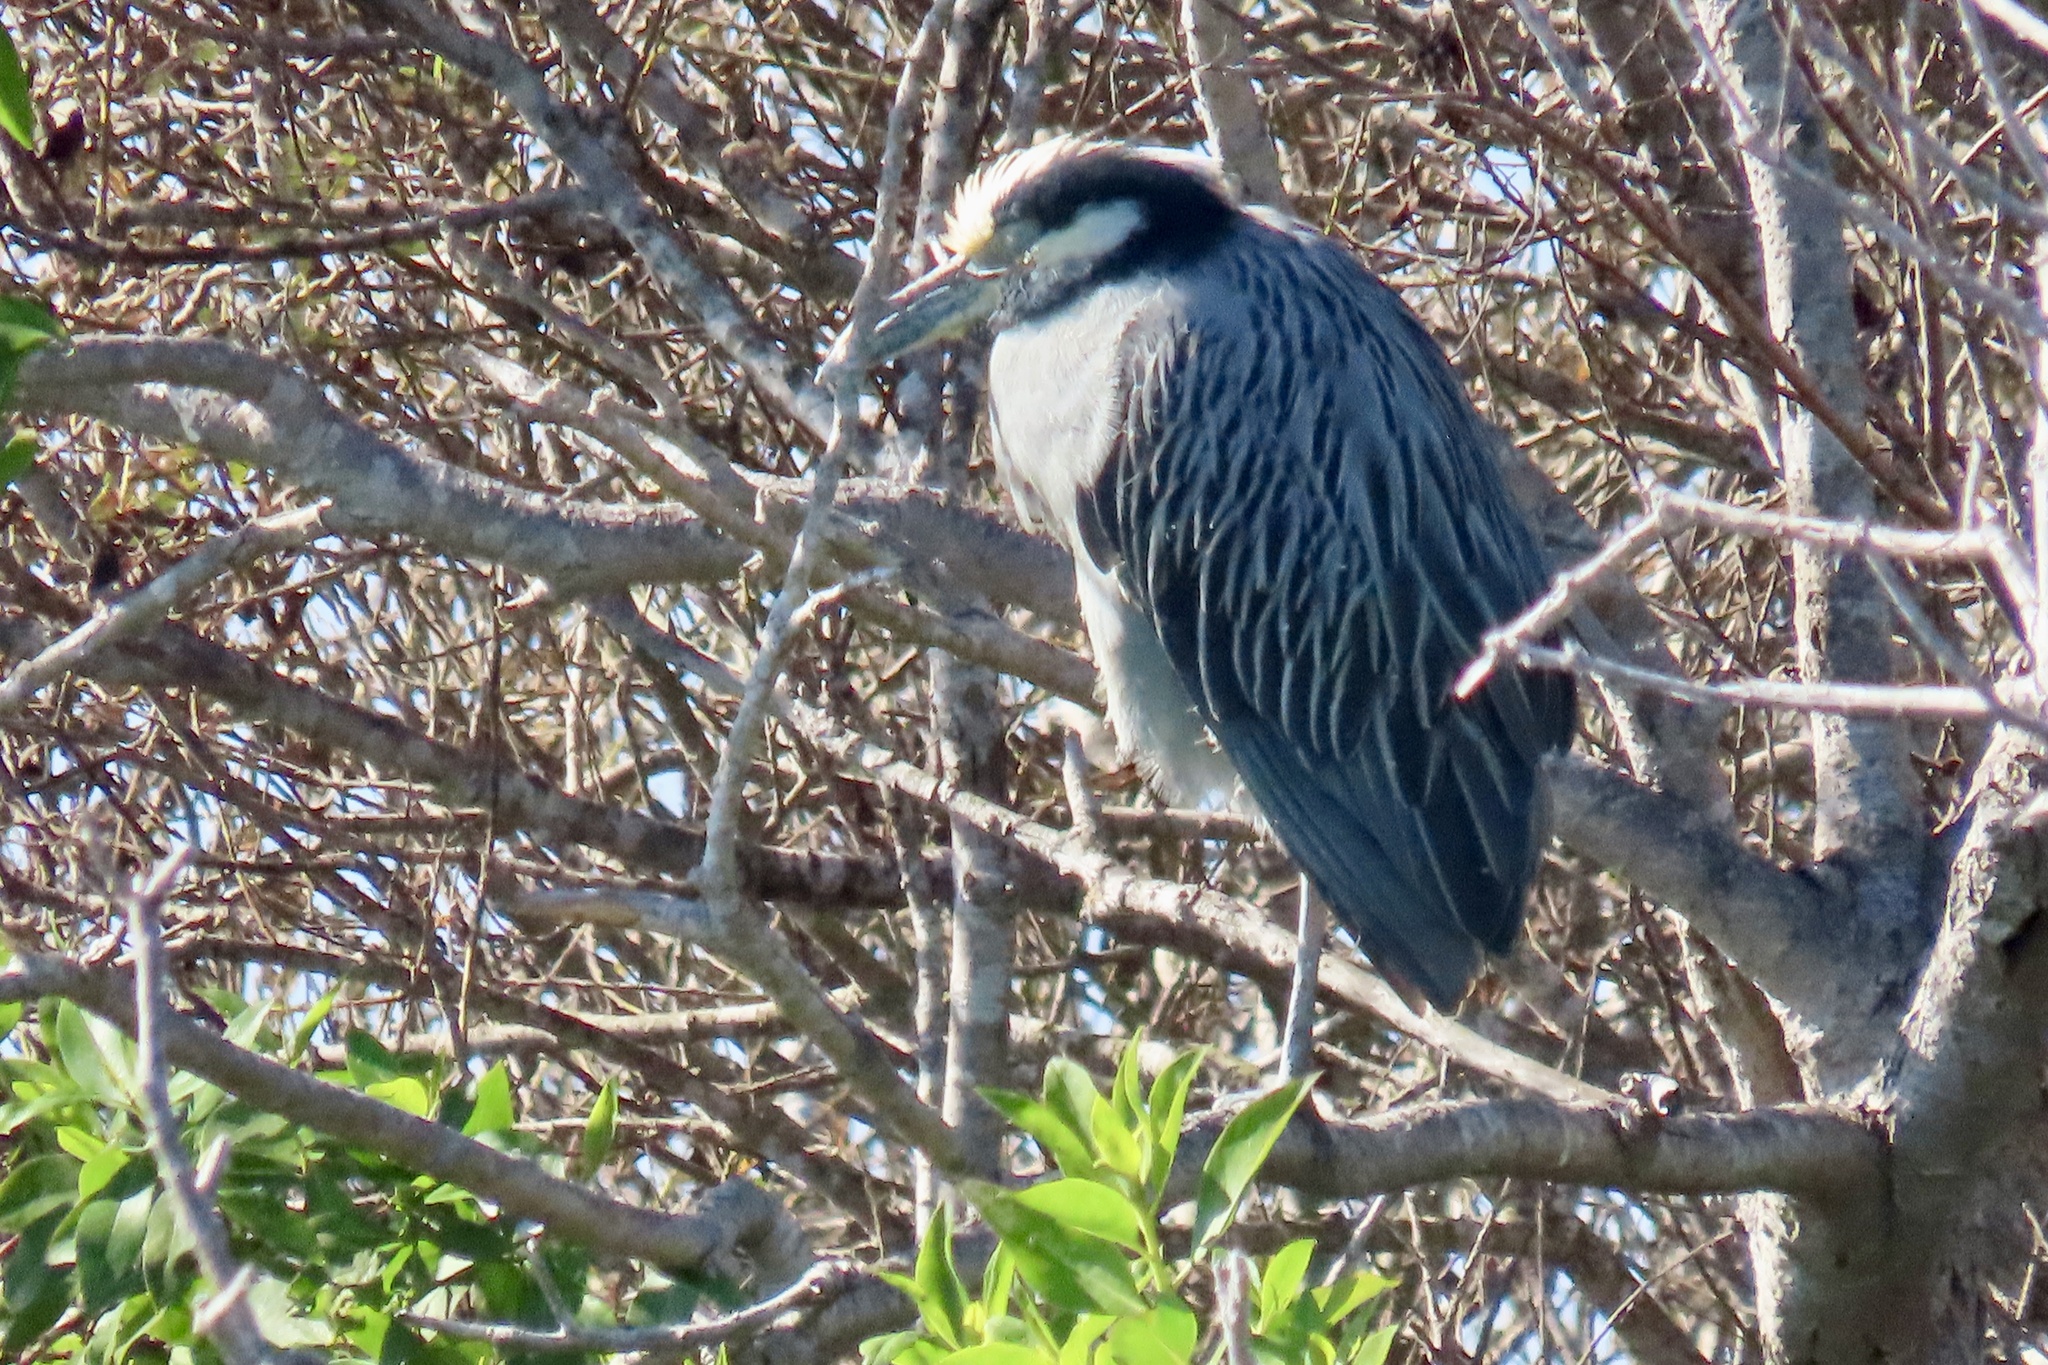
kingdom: Animalia
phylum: Chordata
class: Aves
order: Pelecaniformes
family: Ardeidae
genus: Nyctanassa
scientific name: Nyctanassa violacea
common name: Yellow-crowned night heron
